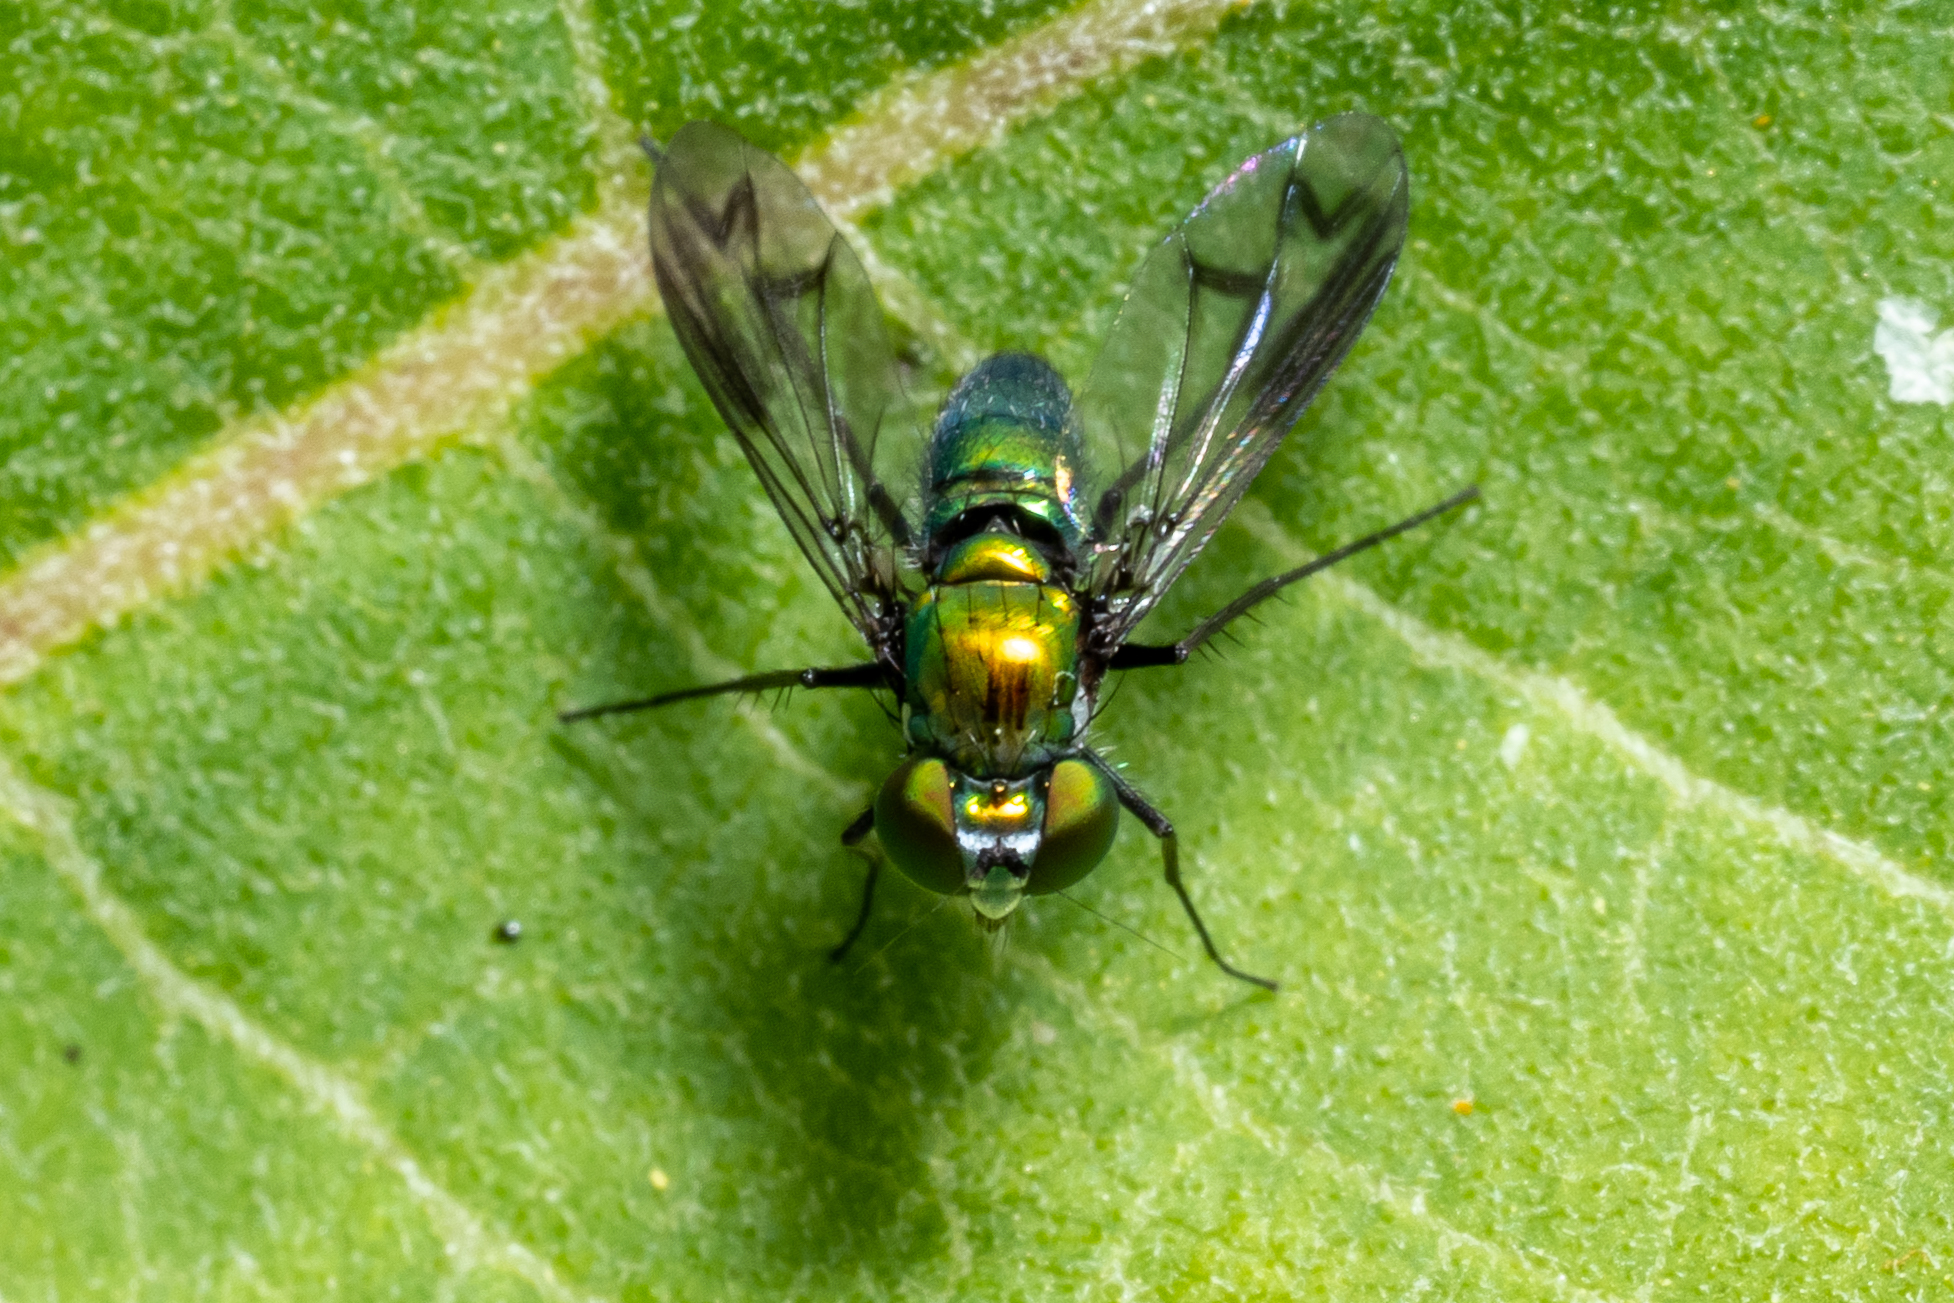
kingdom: Animalia
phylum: Arthropoda
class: Insecta
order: Diptera
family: Dolichopodidae
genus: Condylostylus
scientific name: Condylostylus patibulatus
